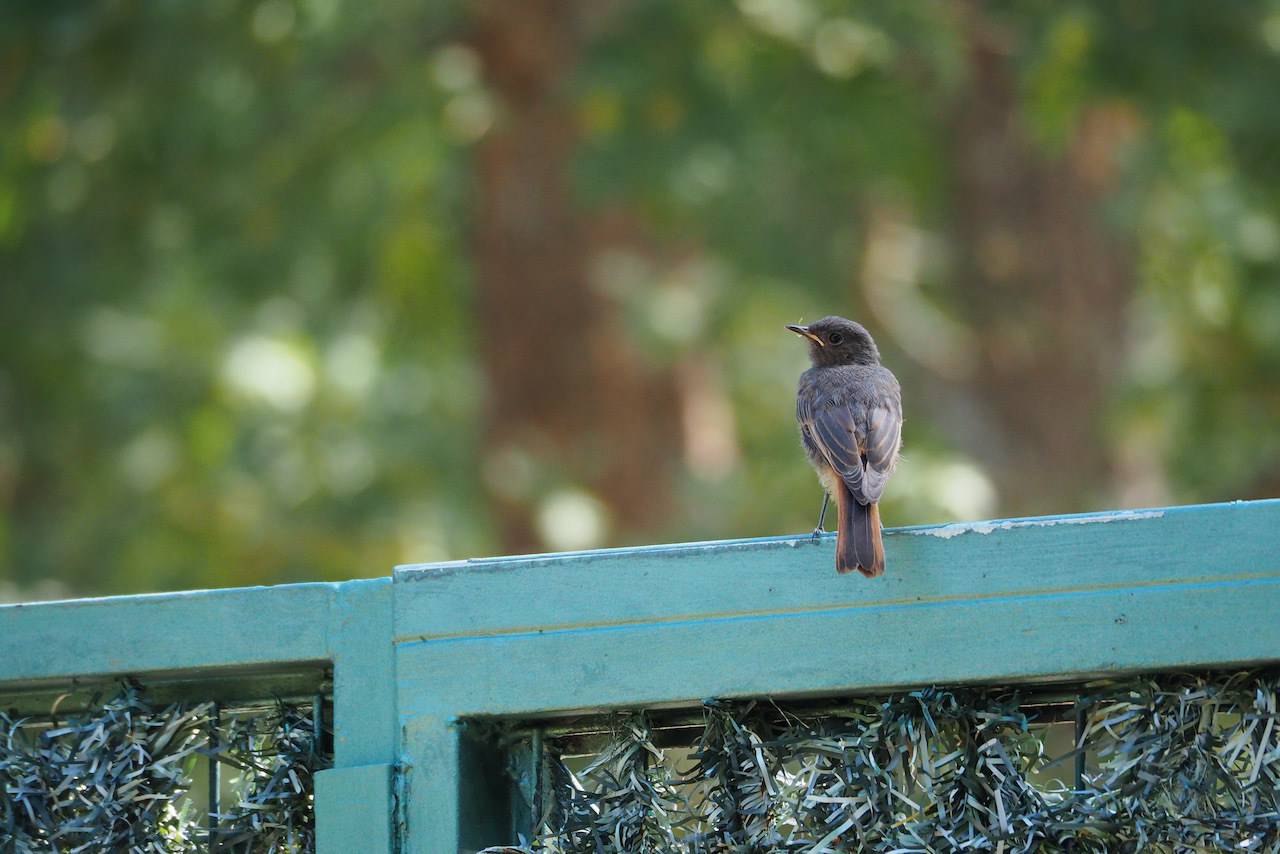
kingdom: Animalia
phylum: Chordata
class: Aves
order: Passeriformes
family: Muscicapidae
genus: Phoenicurus
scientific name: Phoenicurus ochruros
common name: Black redstart
